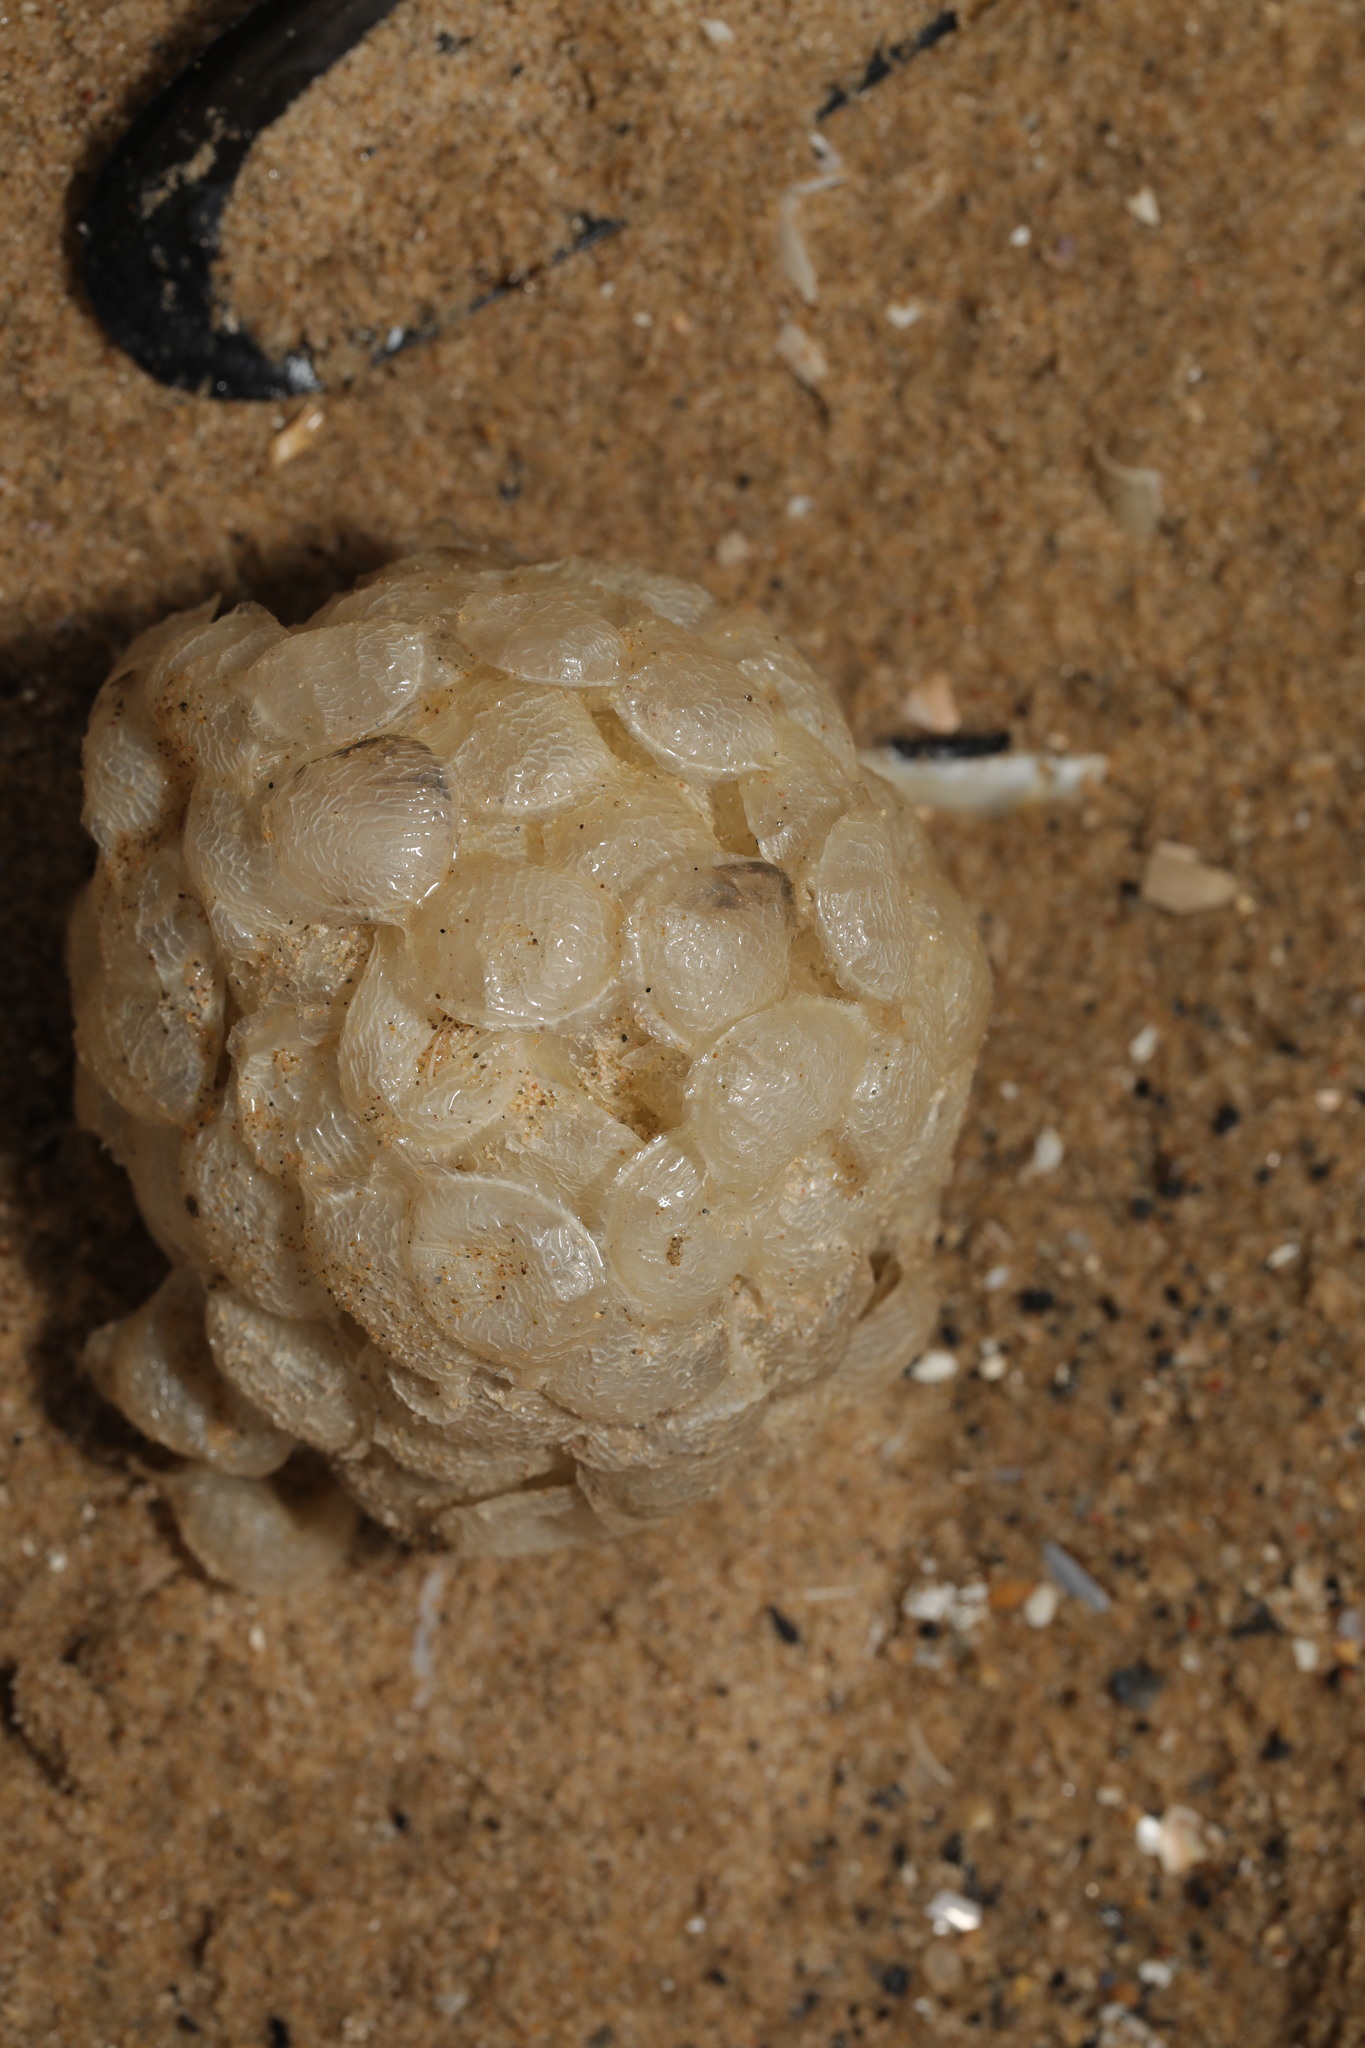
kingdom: Animalia
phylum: Mollusca
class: Gastropoda
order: Neogastropoda
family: Buccinidae
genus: Buccinum
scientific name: Buccinum undatum
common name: Common whelk
